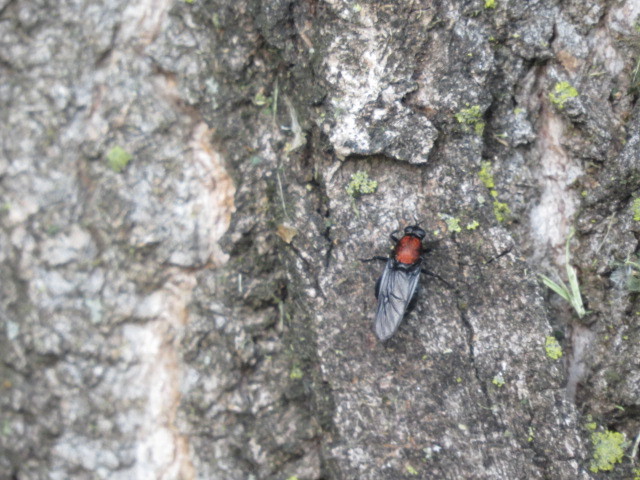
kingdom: Animalia
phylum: Arthropoda
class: Insecta
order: Diptera
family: Stratiomyidae
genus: Clitellaria
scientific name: Clitellaria ephippium
